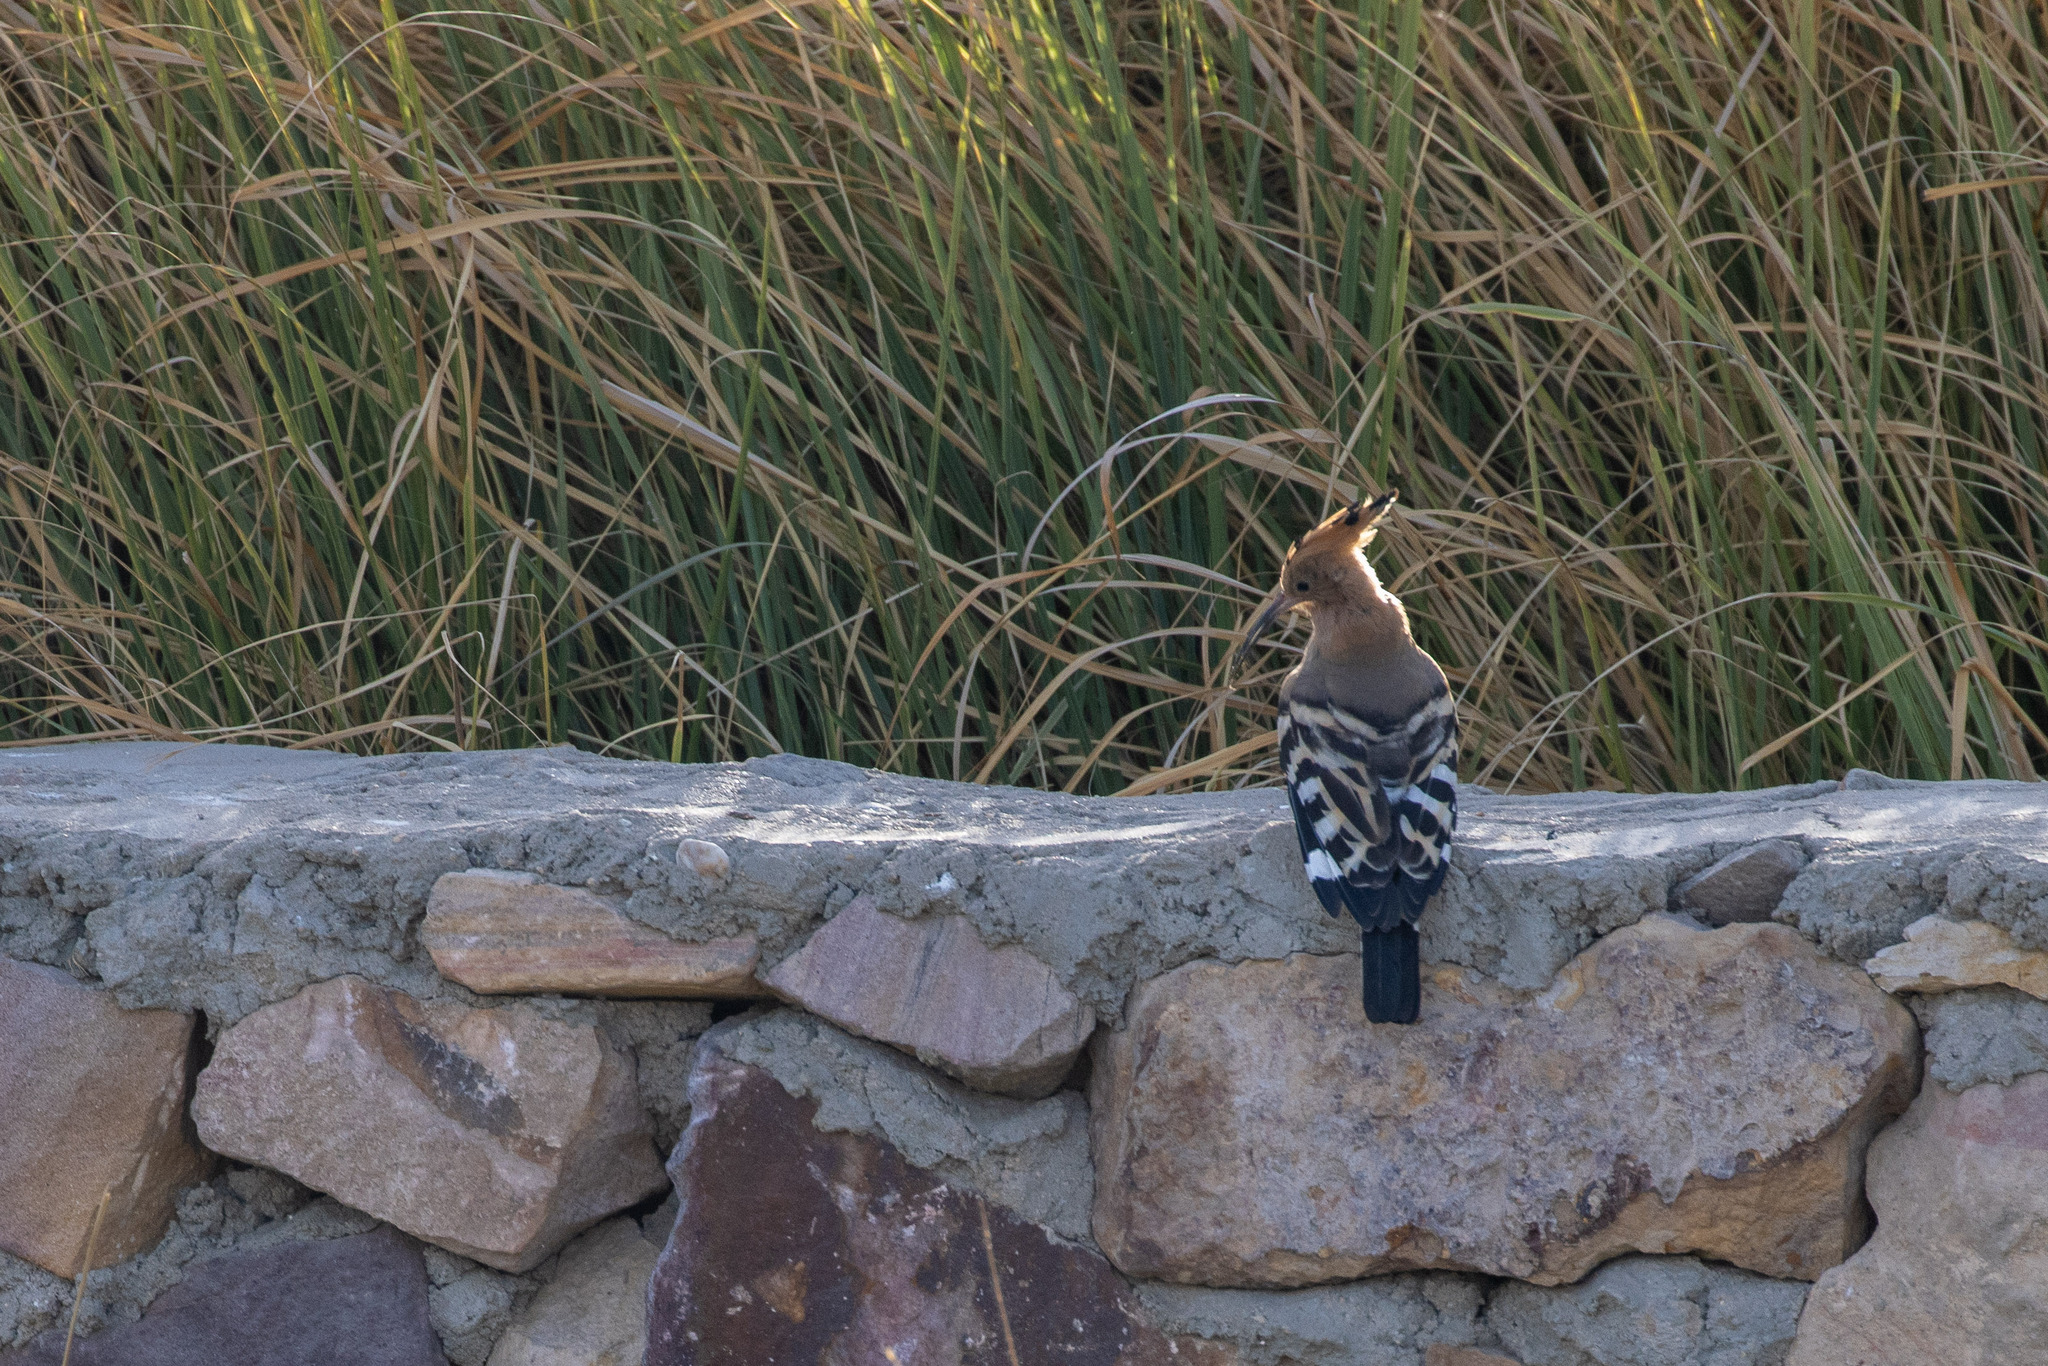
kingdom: Animalia
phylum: Chordata
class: Aves
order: Bucerotiformes
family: Upupidae
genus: Upupa
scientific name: Upupa epops
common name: Eurasian hoopoe
